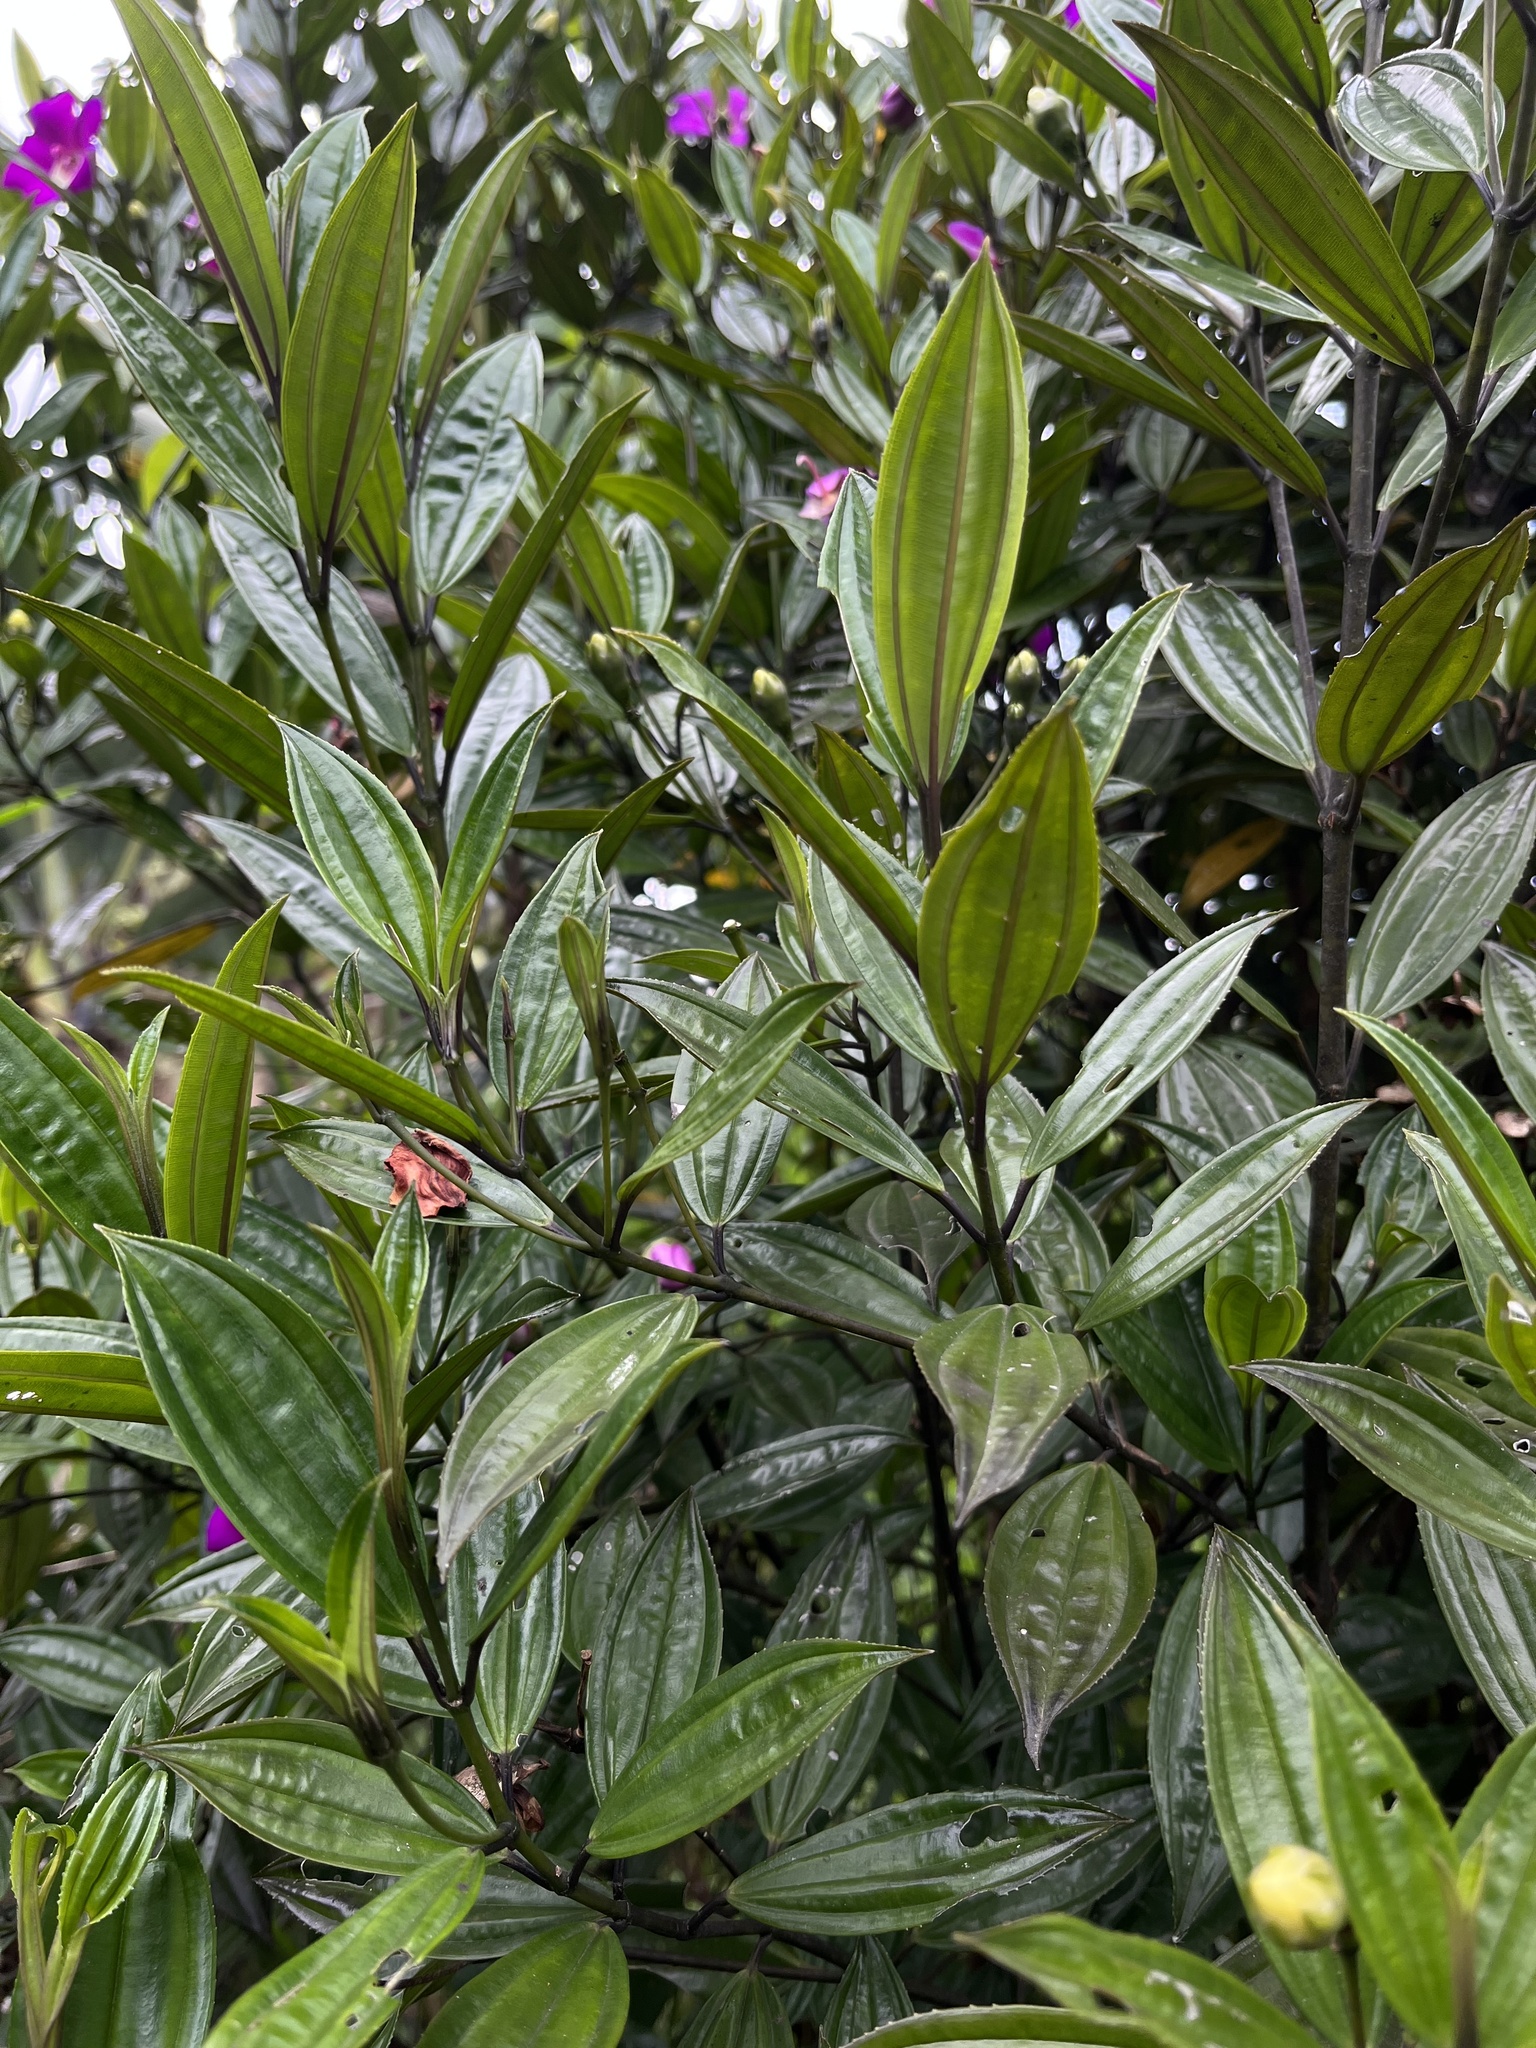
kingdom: Plantae
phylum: Tracheophyta
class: Magnoliopsida
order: Myrtales
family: Melastomataceae
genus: Meriania
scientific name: Meriania speciosa
